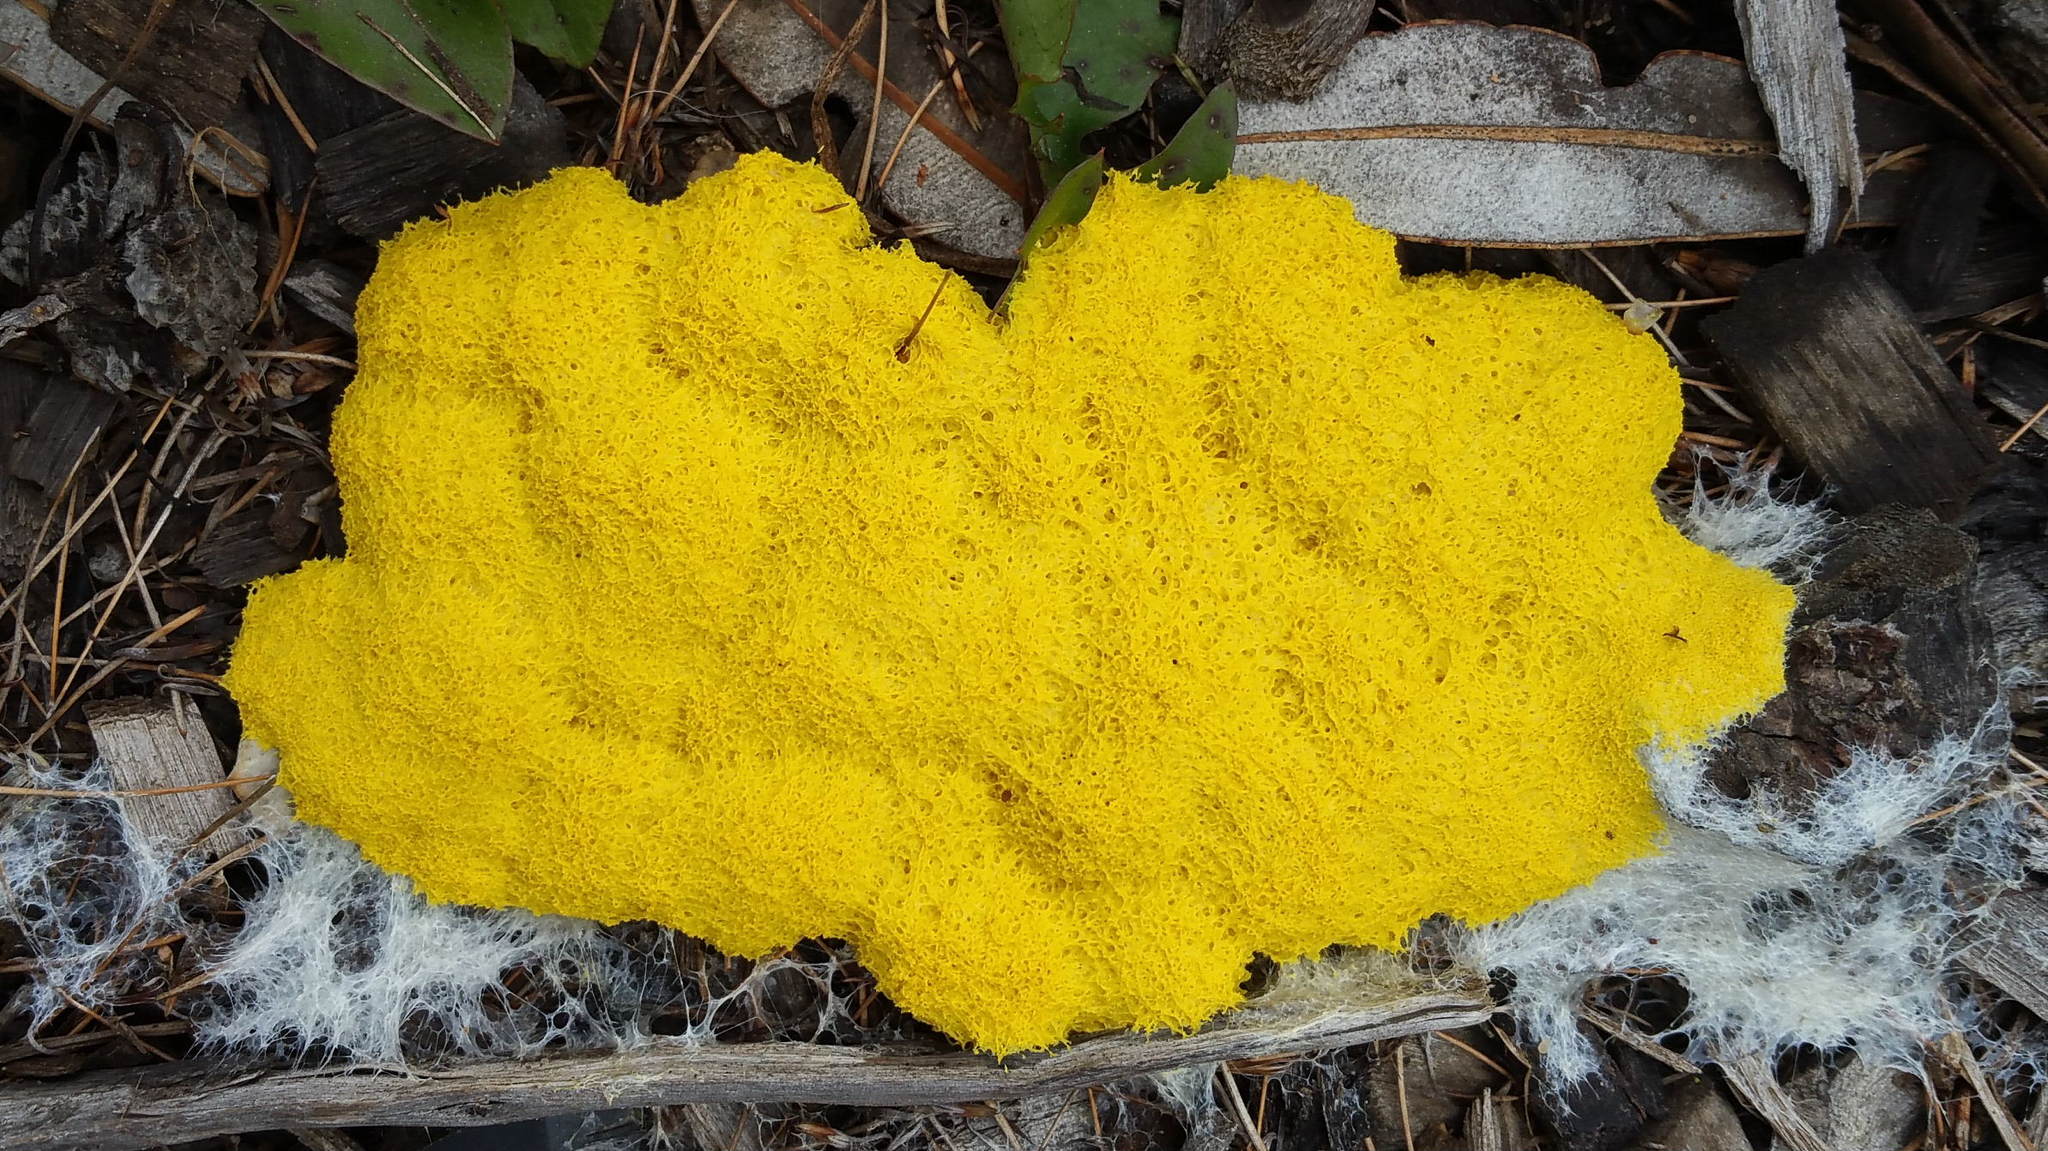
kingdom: Protozoa
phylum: Mycetozoa
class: Myxomycetes
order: Physarales
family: Physaraceae
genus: Fuligo
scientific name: Fuligo septica
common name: Dog vomit slime mold
